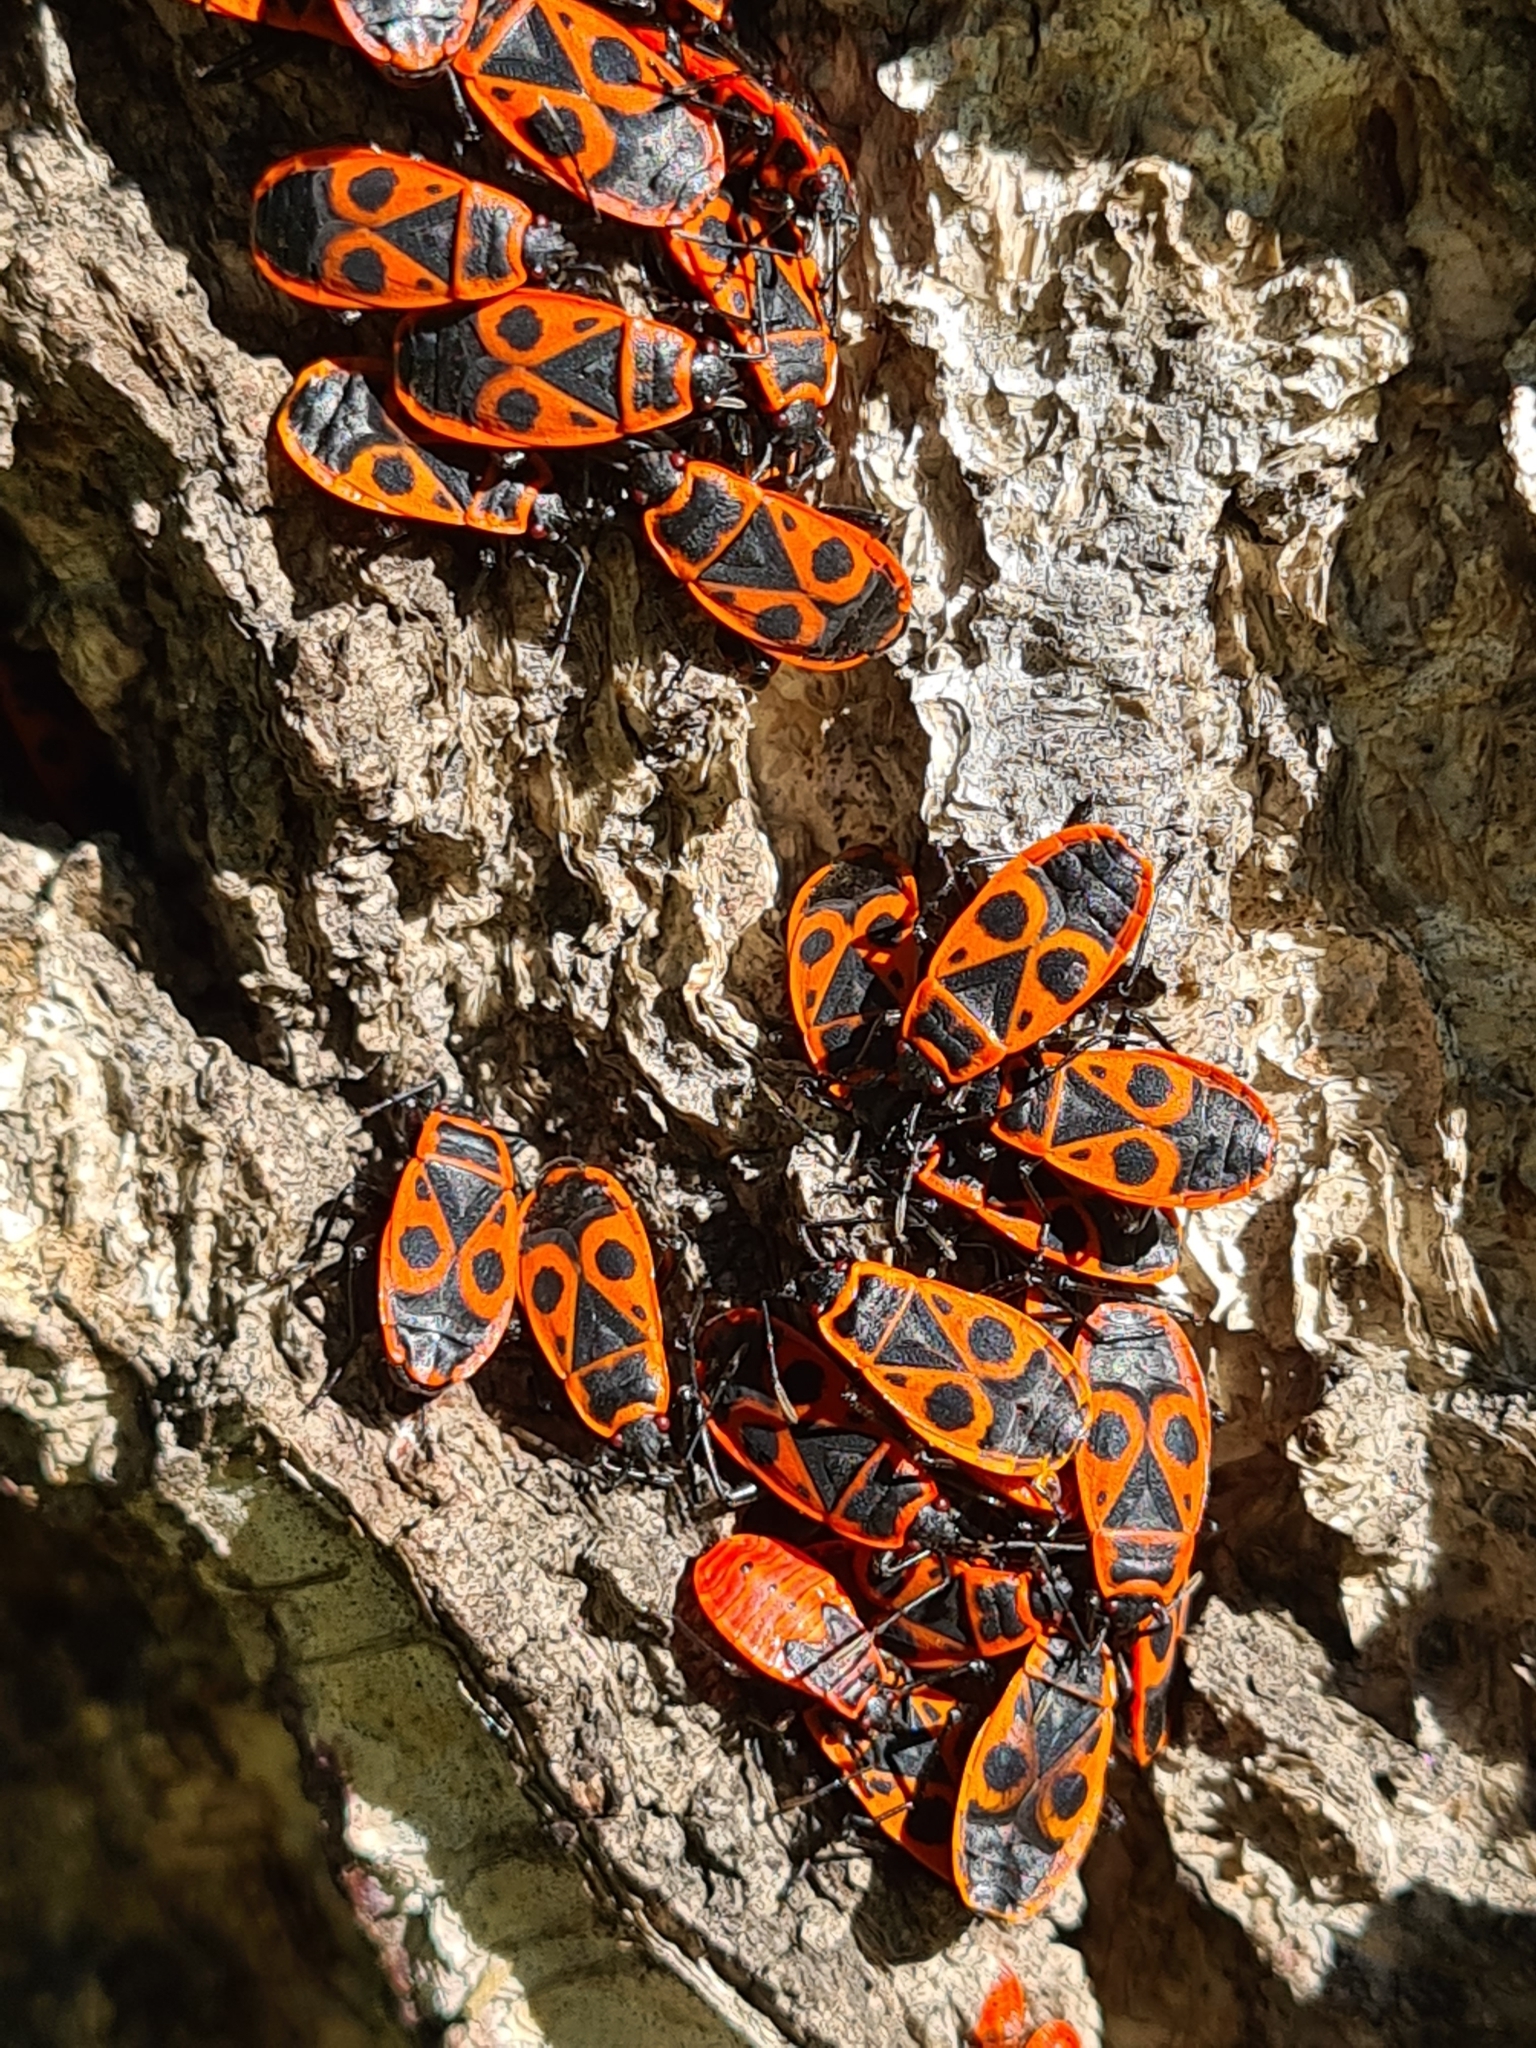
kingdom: Animalia
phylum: Arthropoda
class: Insecta
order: Hemiptera
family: Pyrrhocoridae
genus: Pyrrhocoris
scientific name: Pyrrhocoris apterus
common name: Firebug
